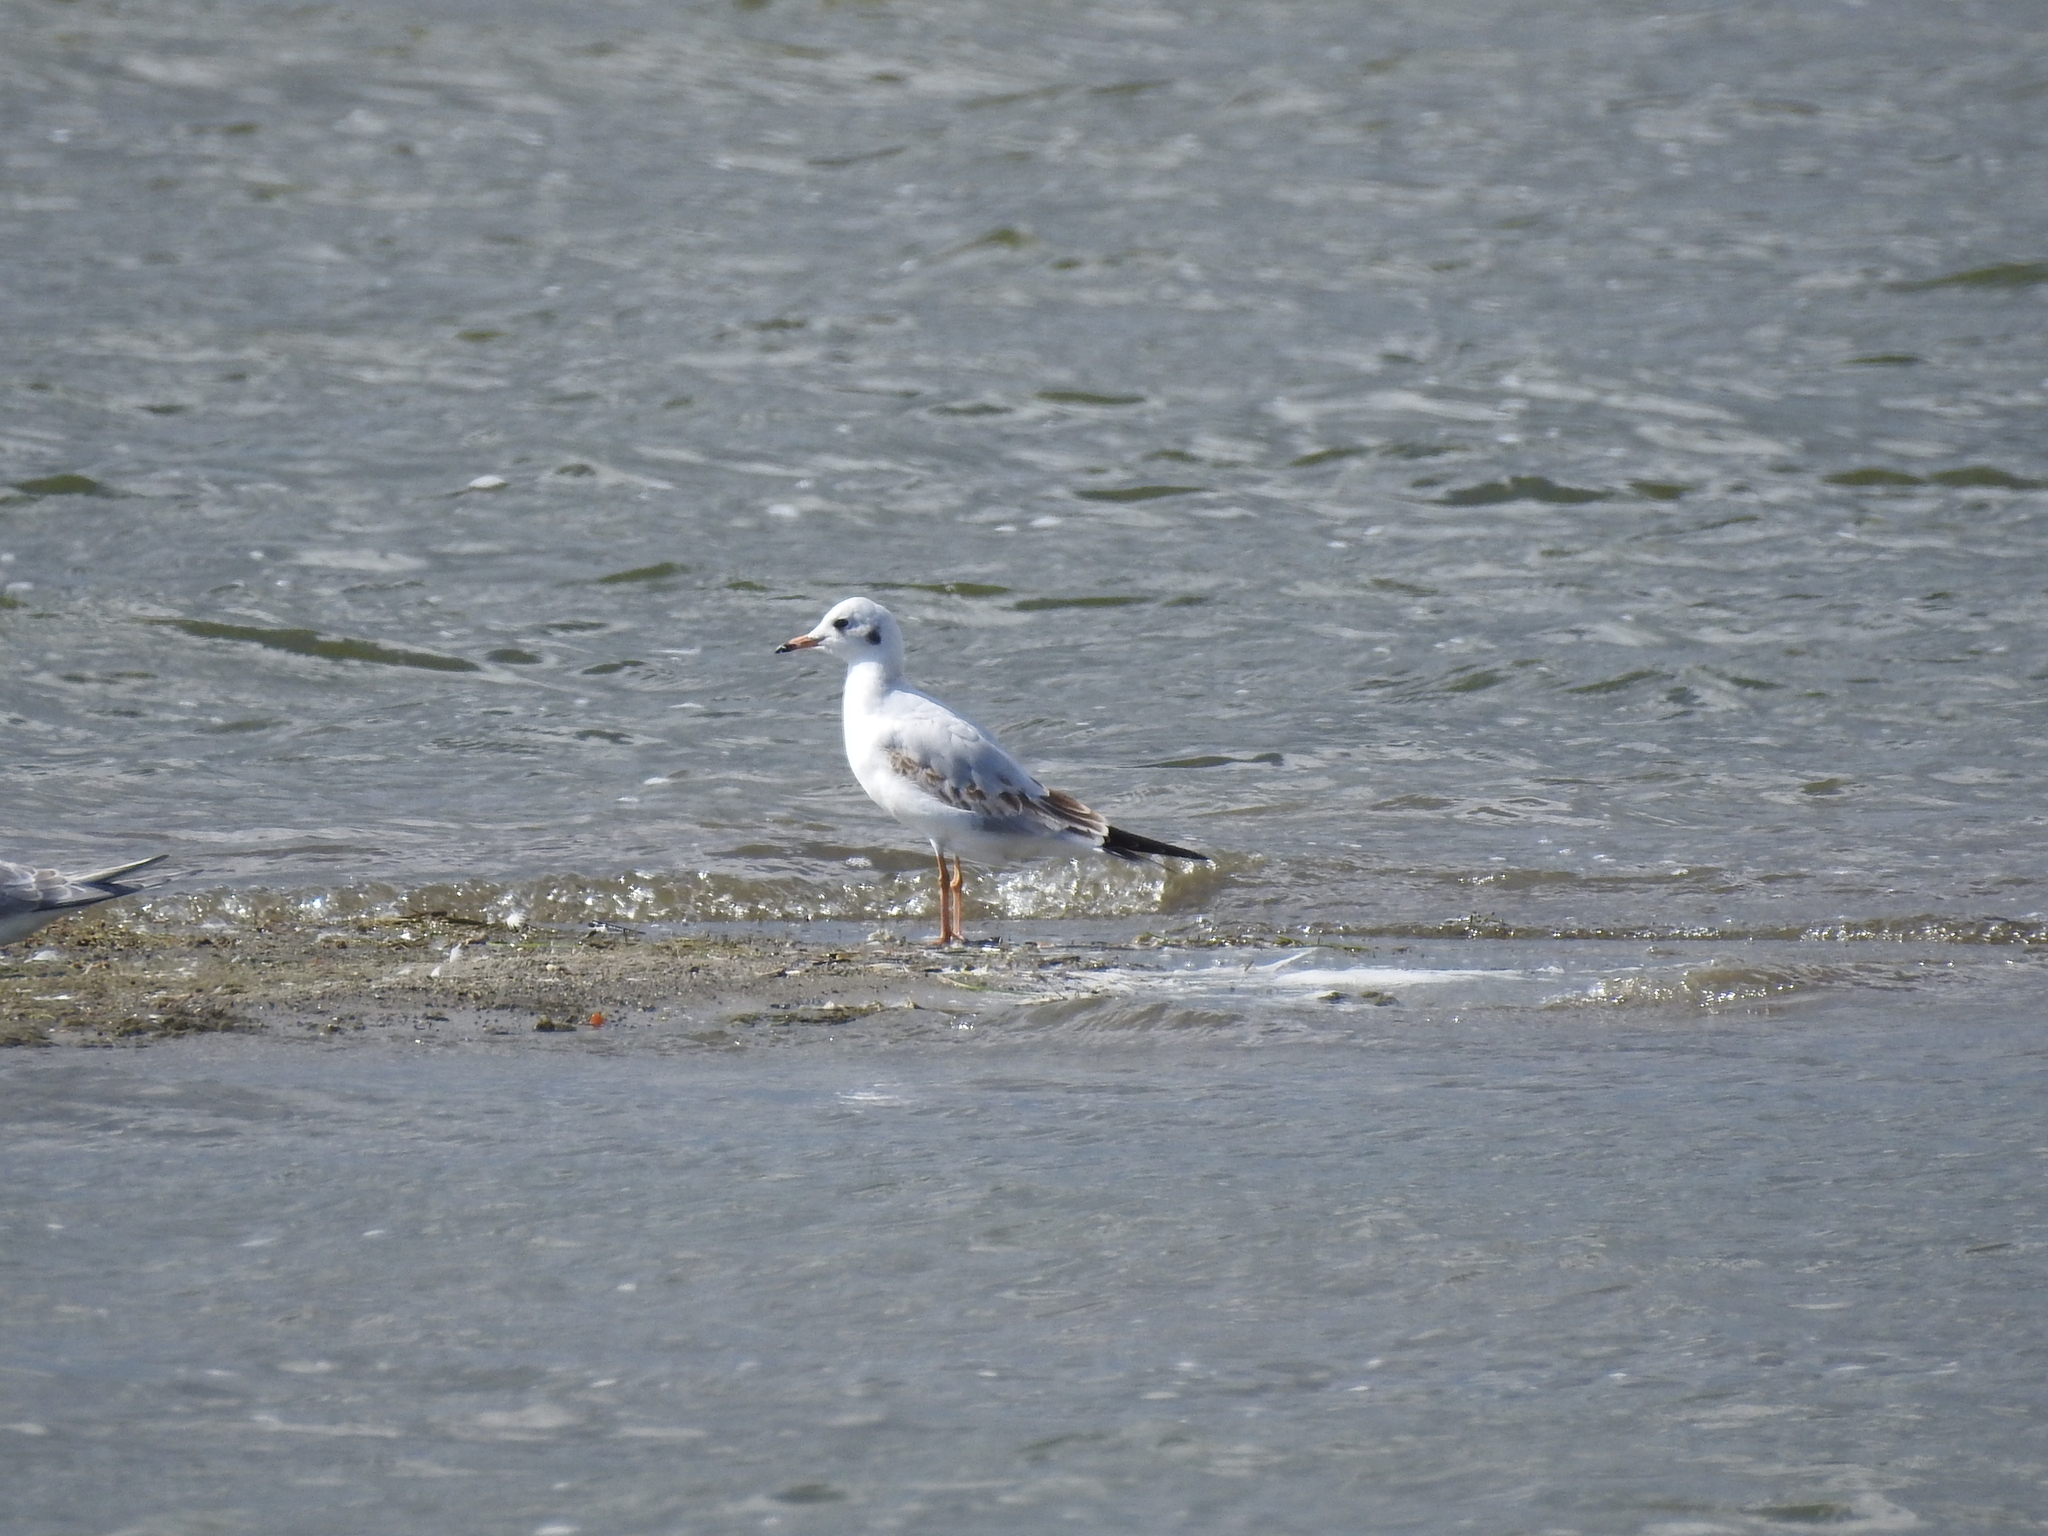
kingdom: Animalia
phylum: Chordata
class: Aves
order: Charadriiformes
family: Laridae
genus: Chroicocephalus
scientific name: Chroicocephalus ridibundus
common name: Black-headed gull
